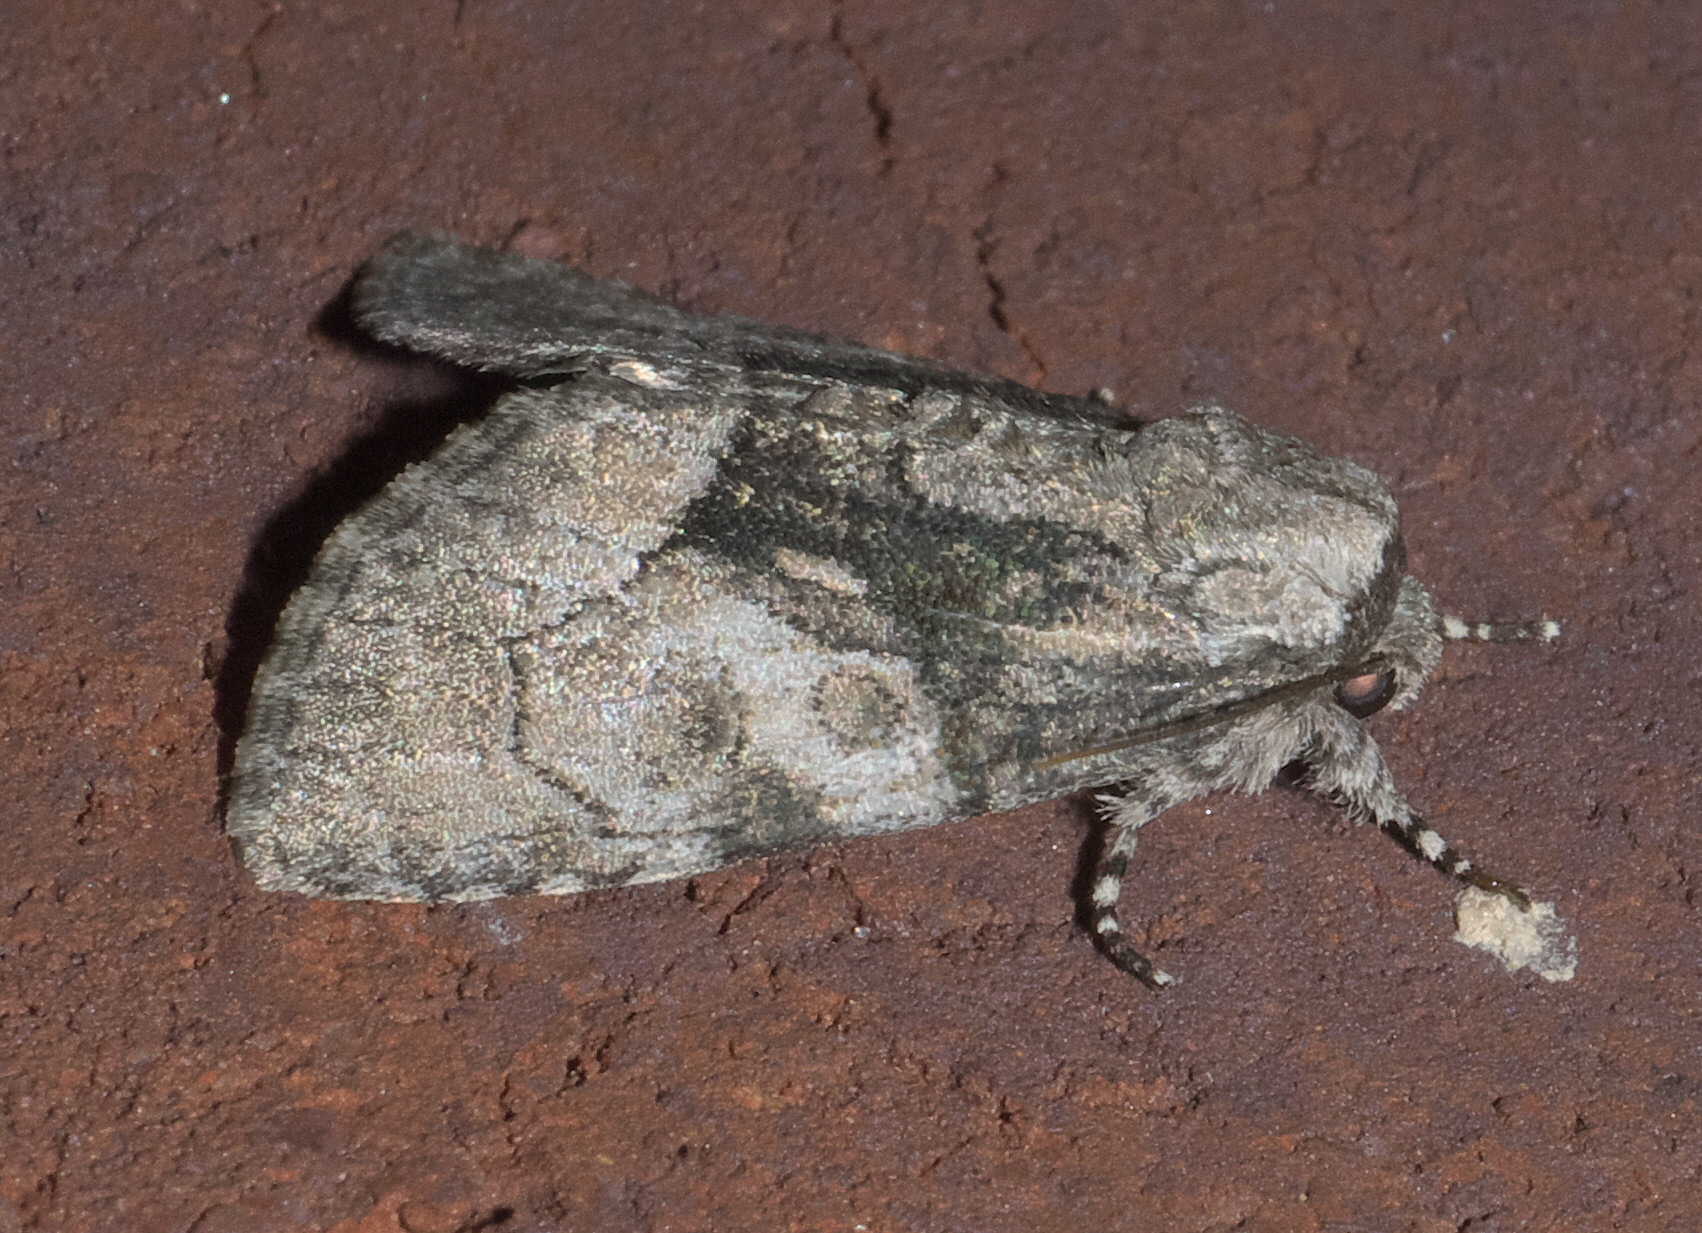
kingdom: Animalia
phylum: Arthropoda
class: Insecta
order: Lepidoptera
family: Noctuidae
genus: Raphia
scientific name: Raphia frater
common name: Brother
